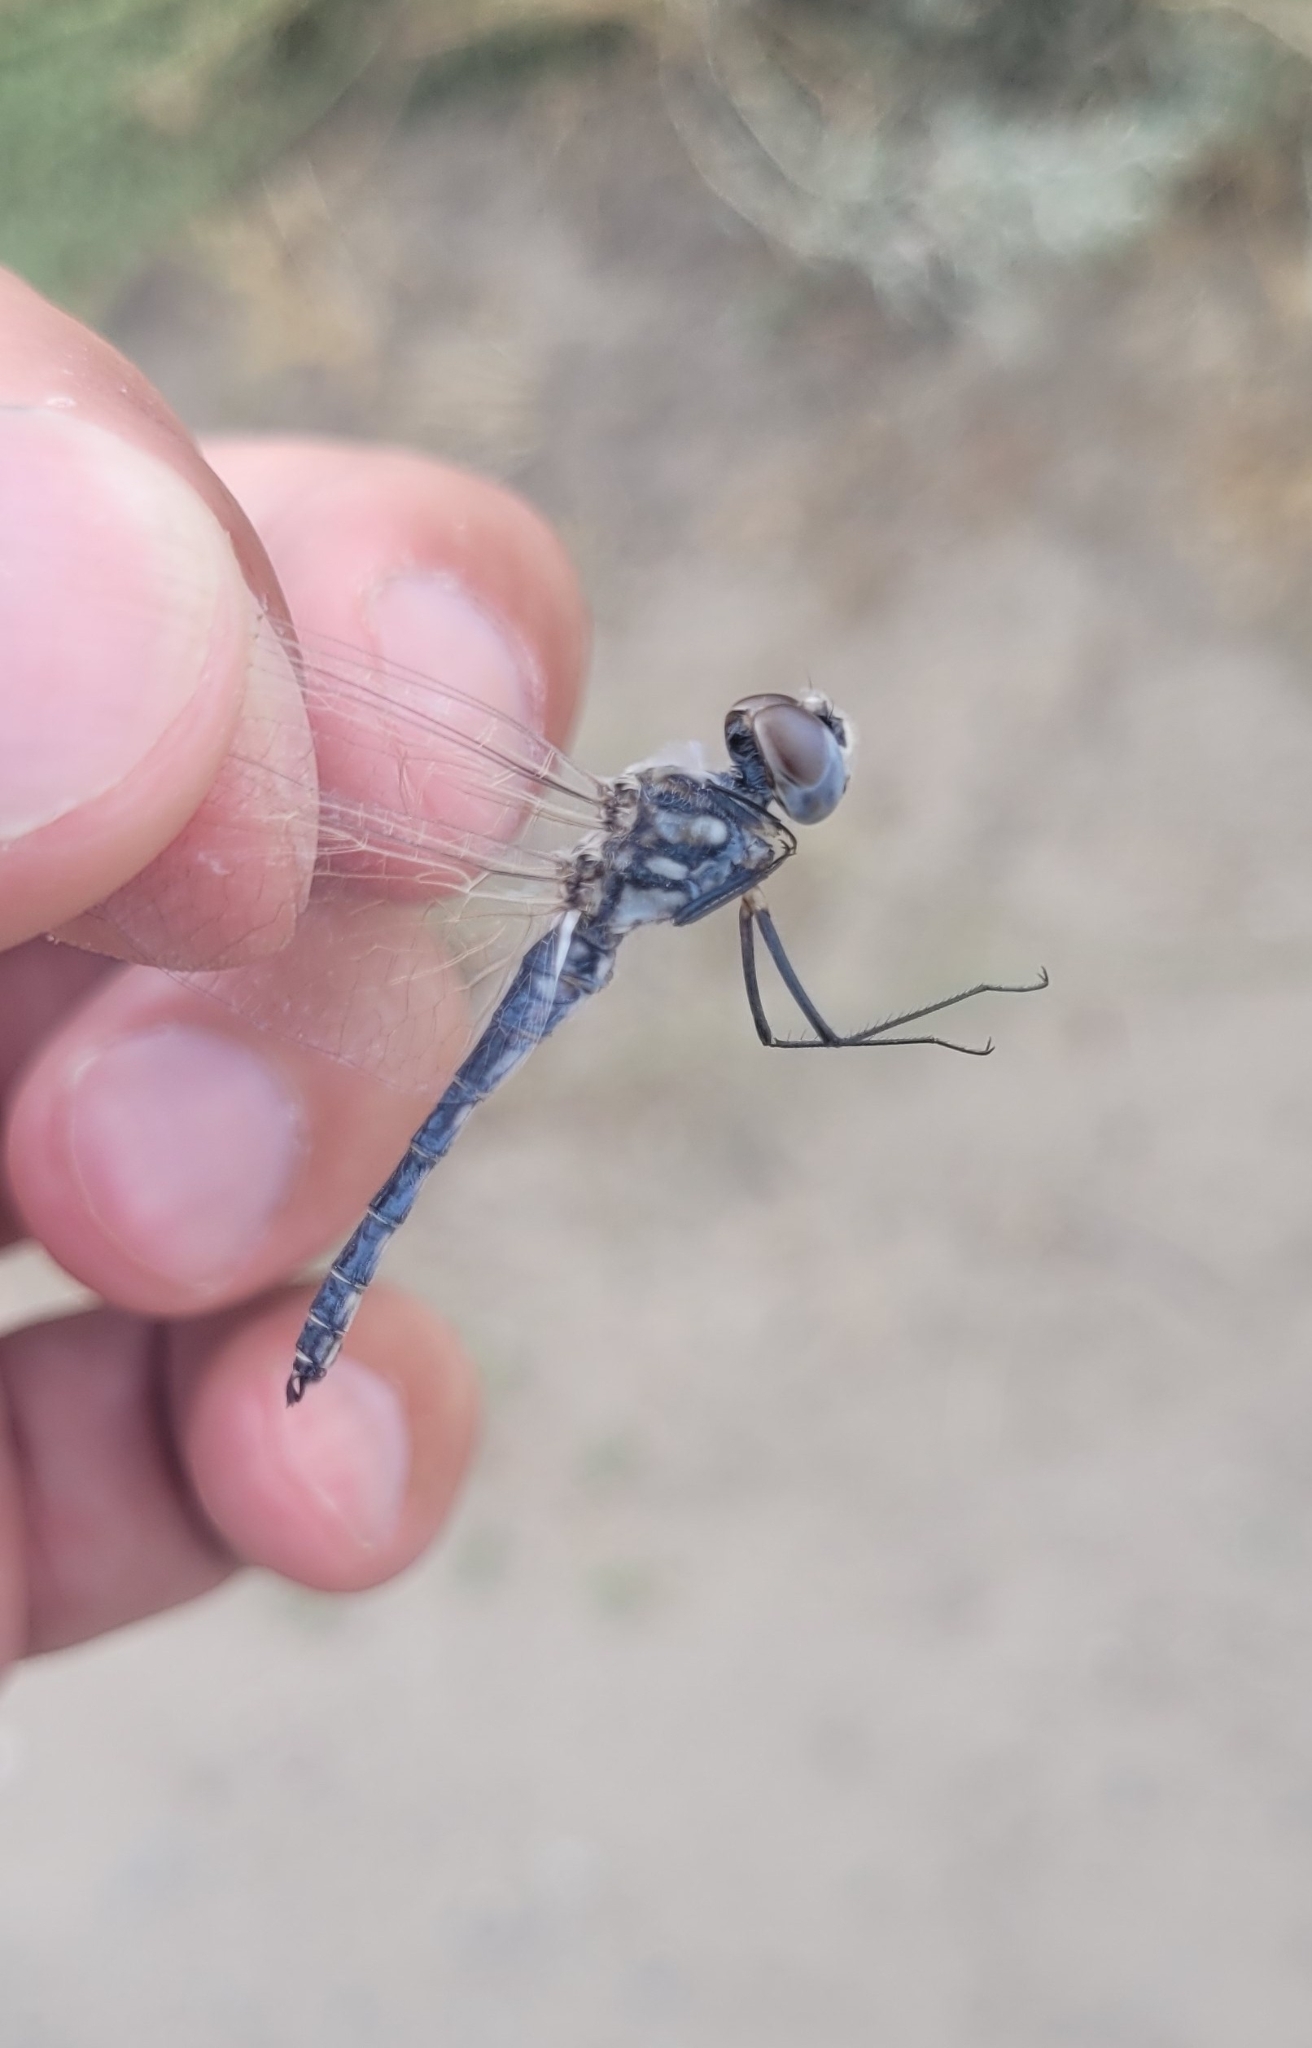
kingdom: Animalia
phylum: Arthropoda
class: Insecta
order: Odonata
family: Libellulidae
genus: Selysiothemis
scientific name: Selysiothemis nigra
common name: Black pennant
